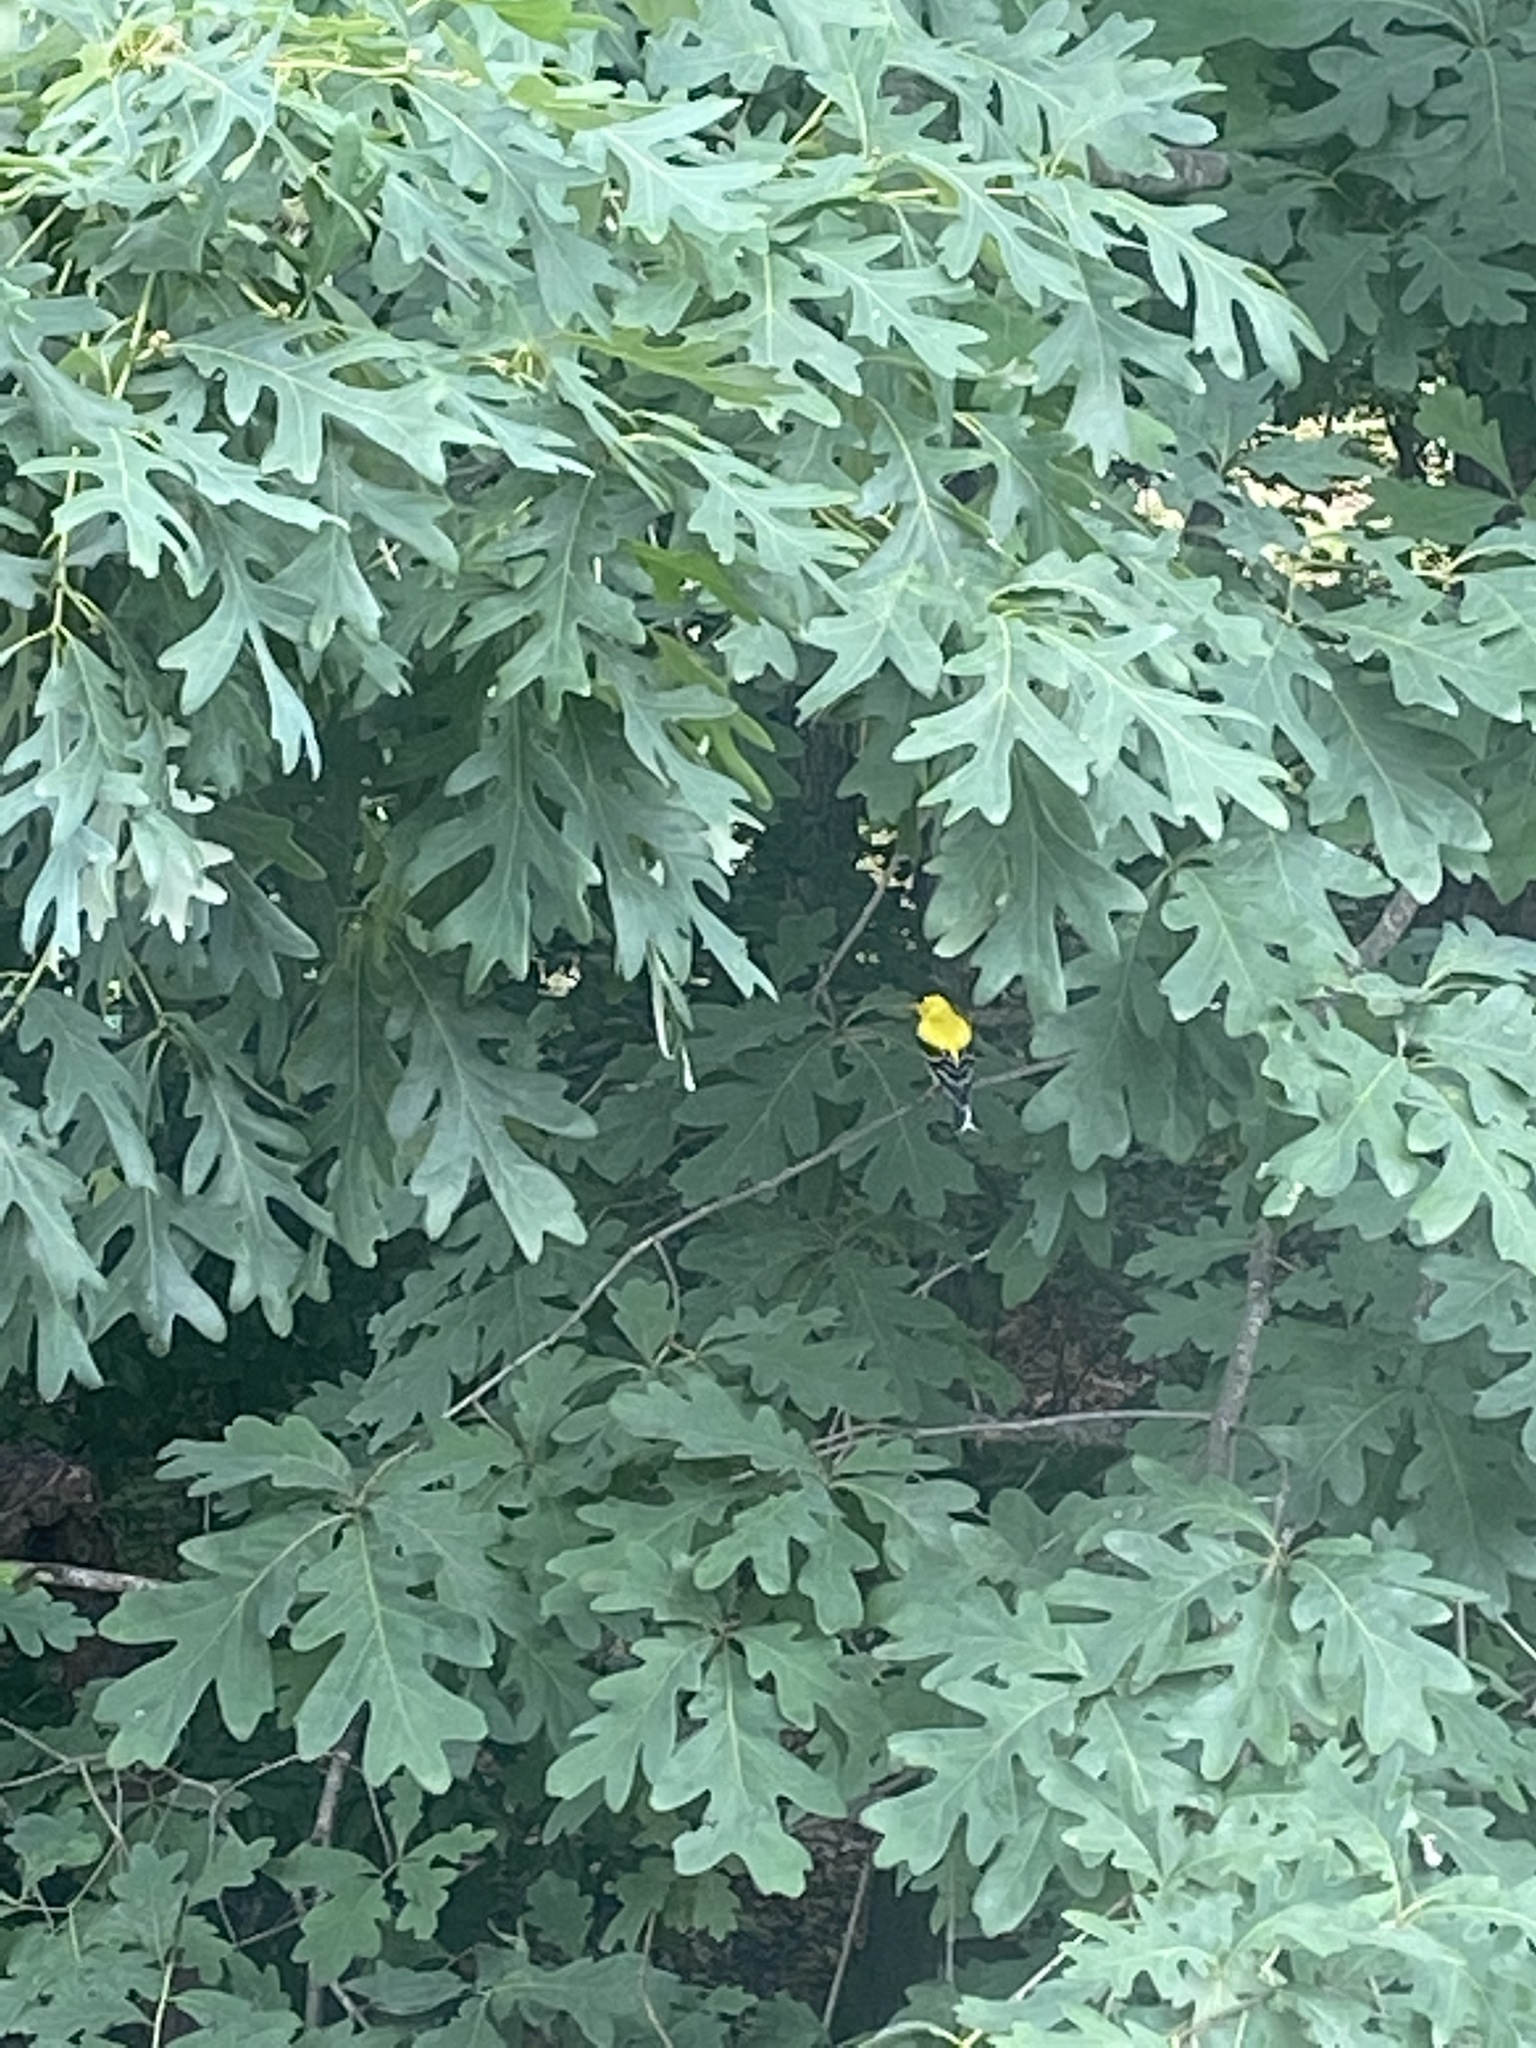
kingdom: Animalia
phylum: Chordata
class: Aves
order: Passeriformes
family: Fringillidae
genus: Spinus
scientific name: Spinus tristis
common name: American goldfinch
